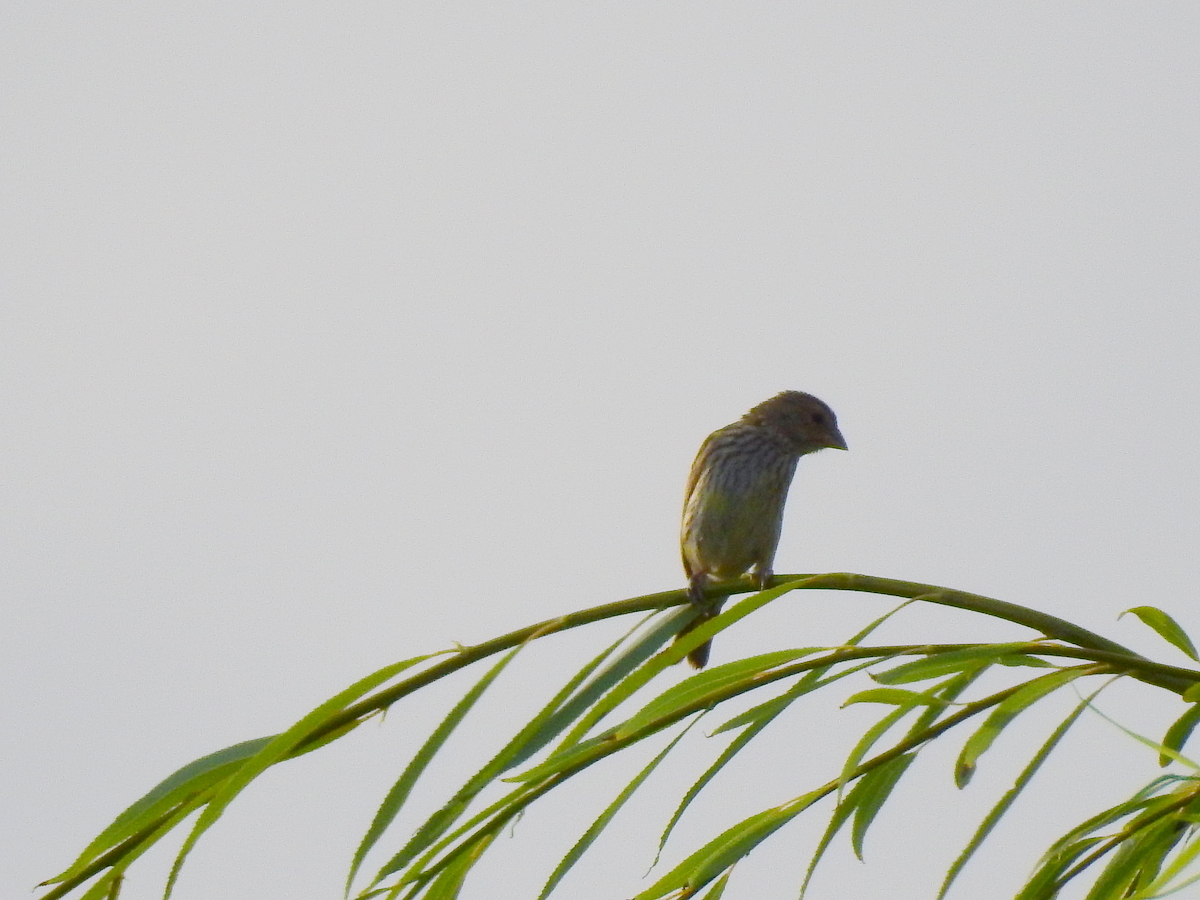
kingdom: Animalia
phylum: Chordata
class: Aves
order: Passeriformes
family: Thraupidae
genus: Sicalis
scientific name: Sicalis luteola
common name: Grassland yellow-finch
